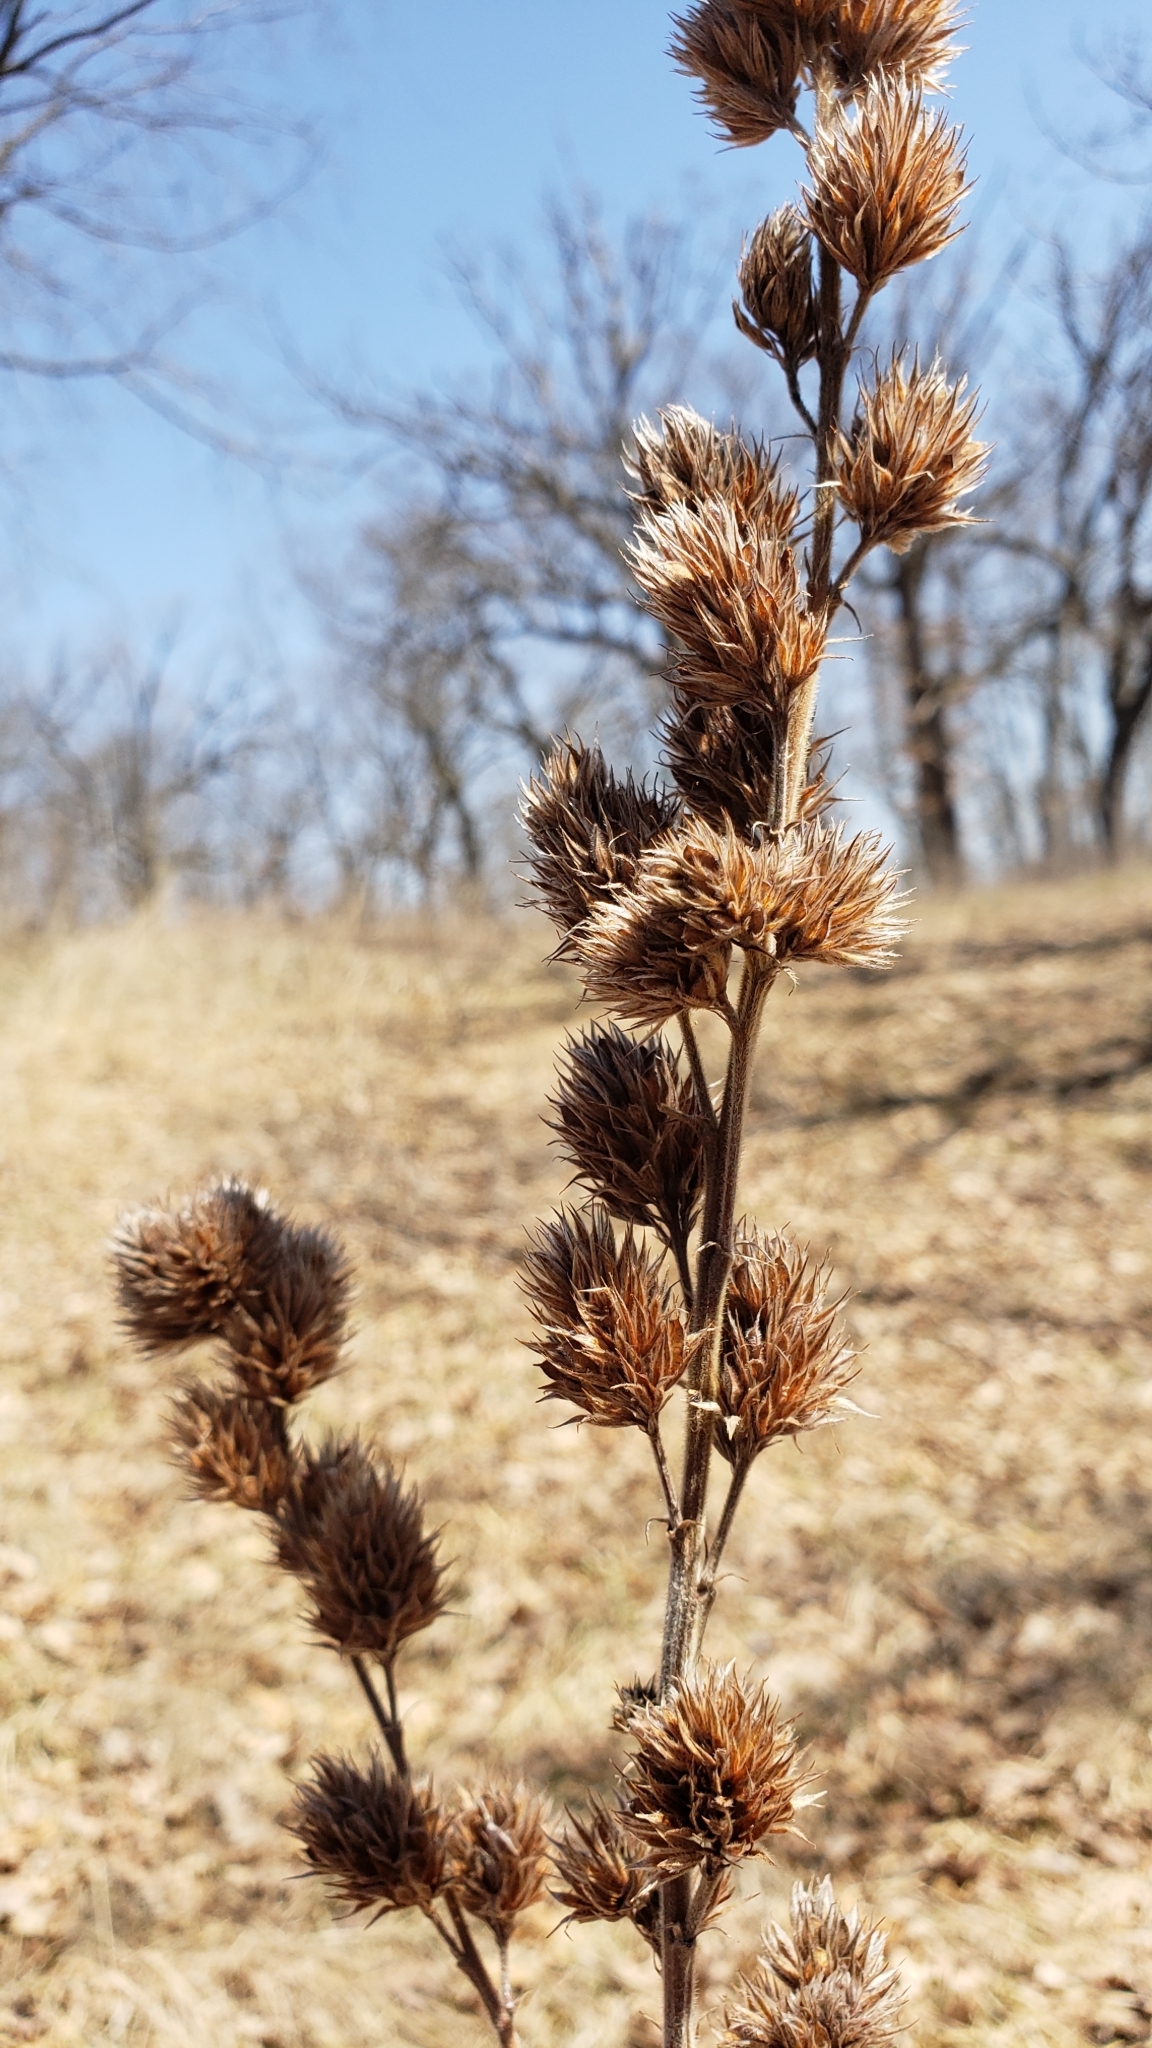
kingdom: Plantae
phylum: Tracheophyta
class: Magnoliopsida
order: Fabales
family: Fabaceae
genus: Lespedeza
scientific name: Lespedeza capitata
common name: Dusty clover
